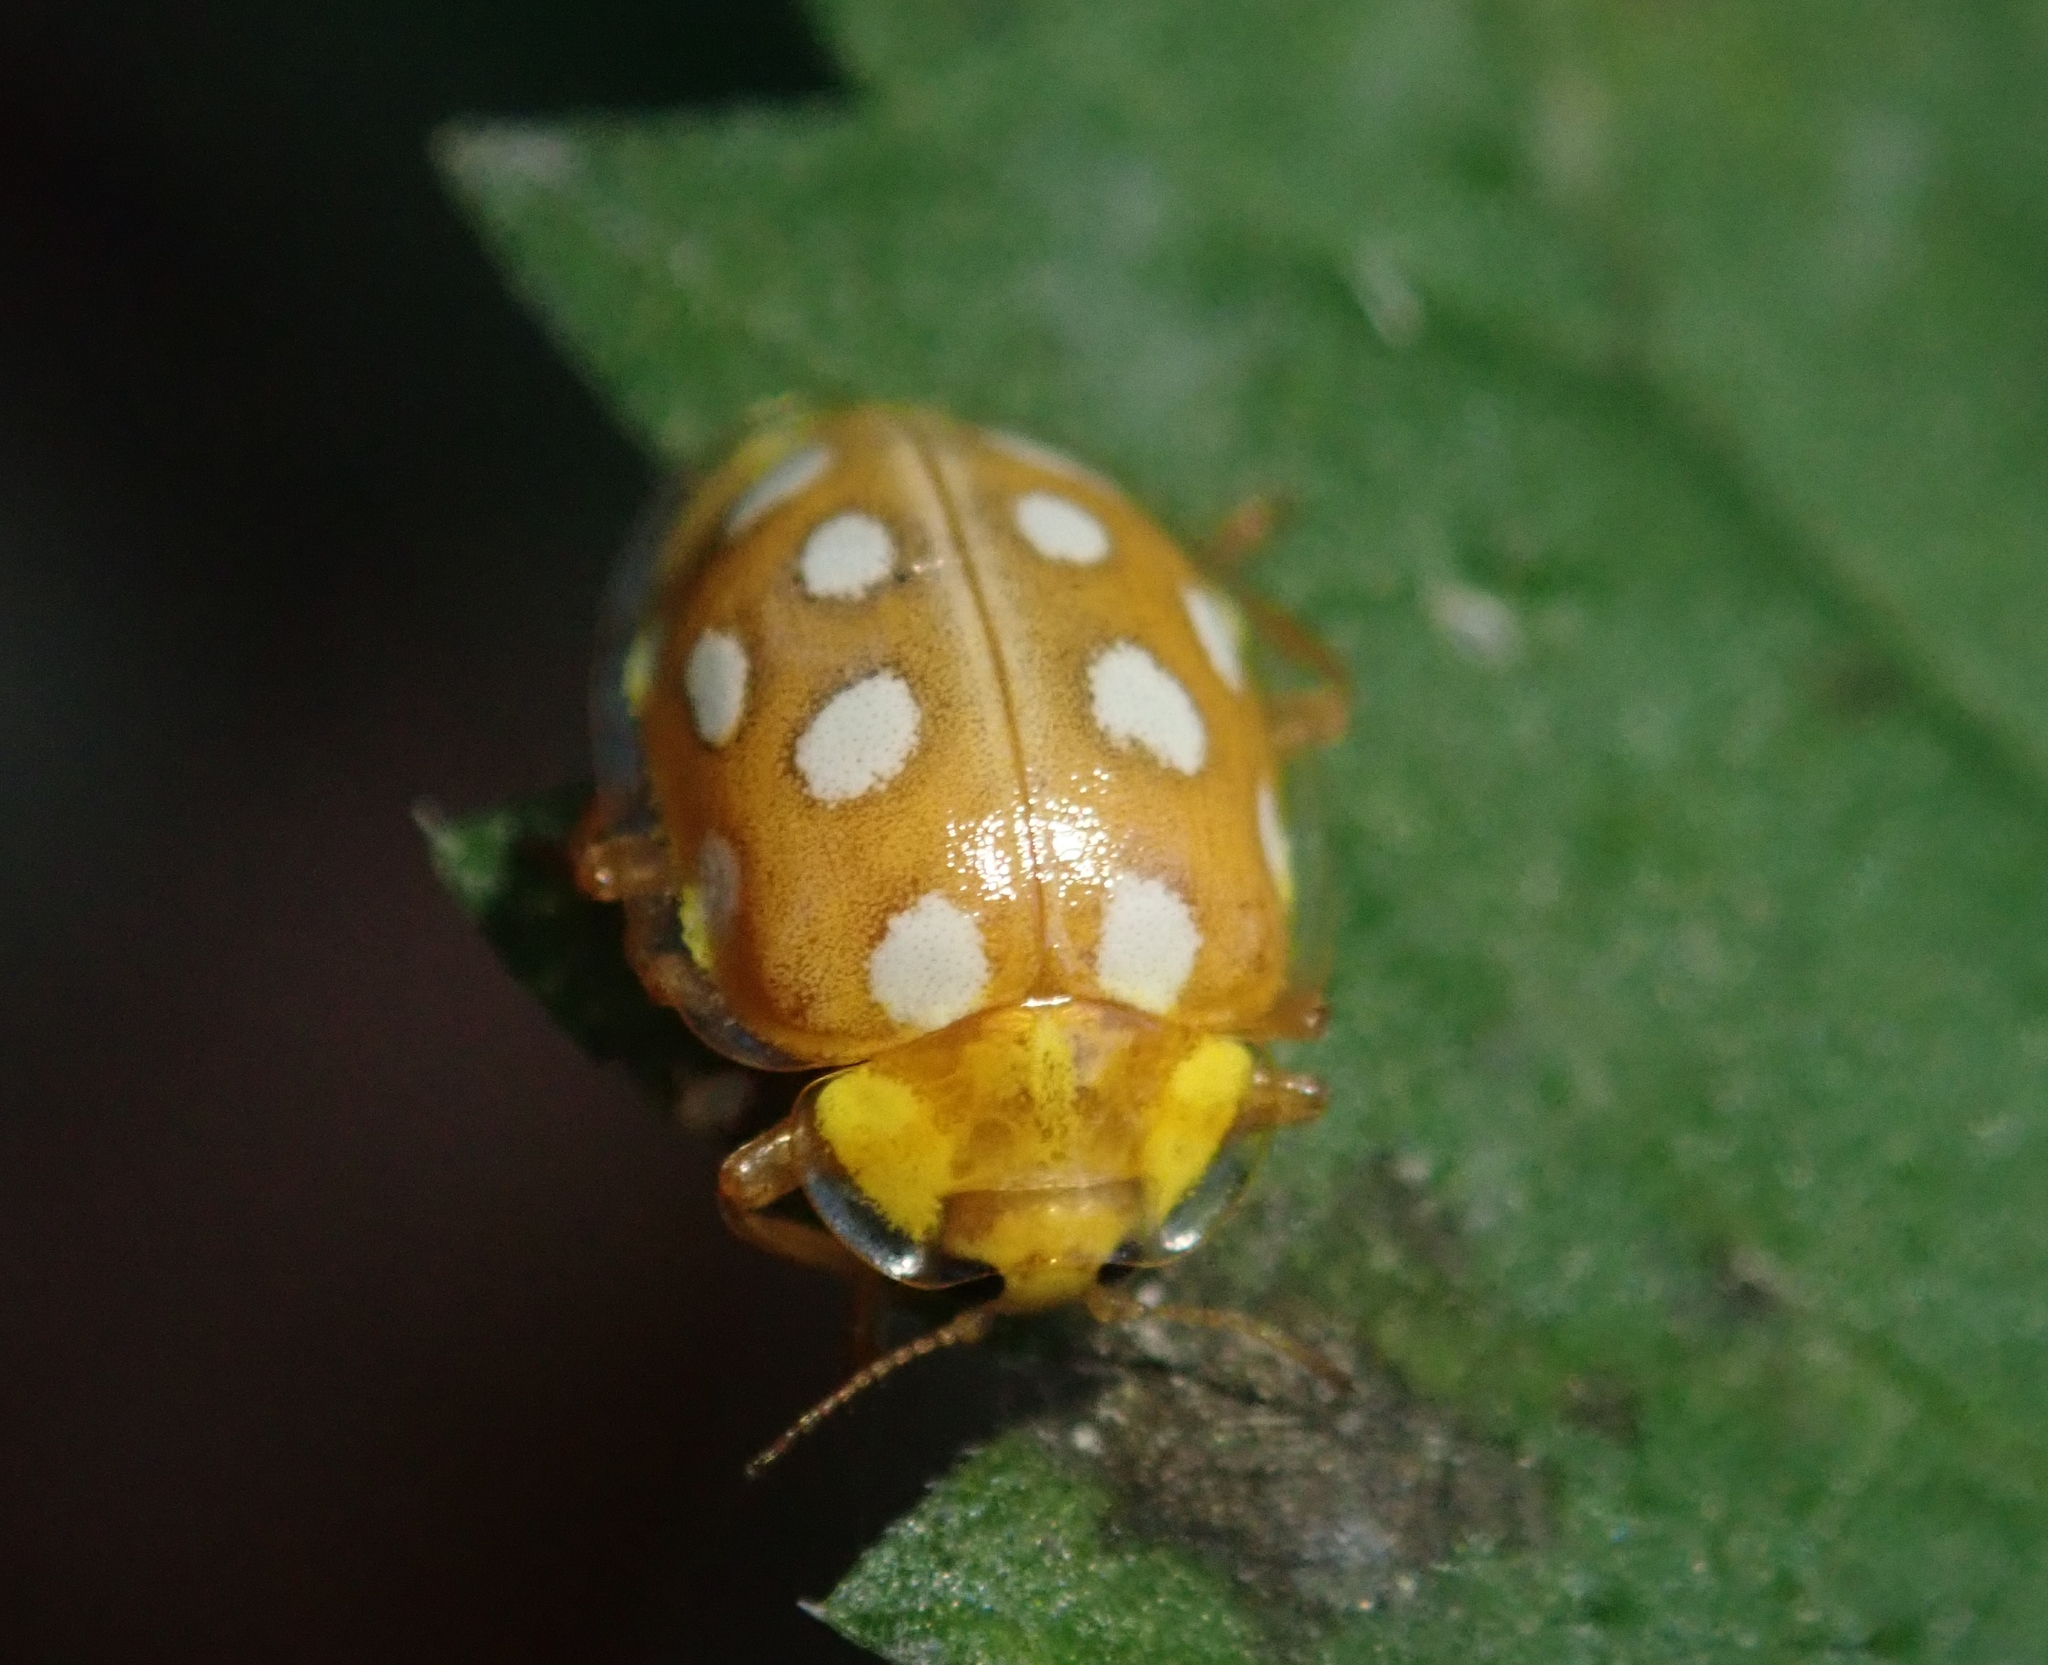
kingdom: Animalia
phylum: Arthropoda
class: Insecta
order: Coleoptera
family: Coccinellidae
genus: Halyzia
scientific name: Halyzia sedecimguttata
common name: Orange ladybird
